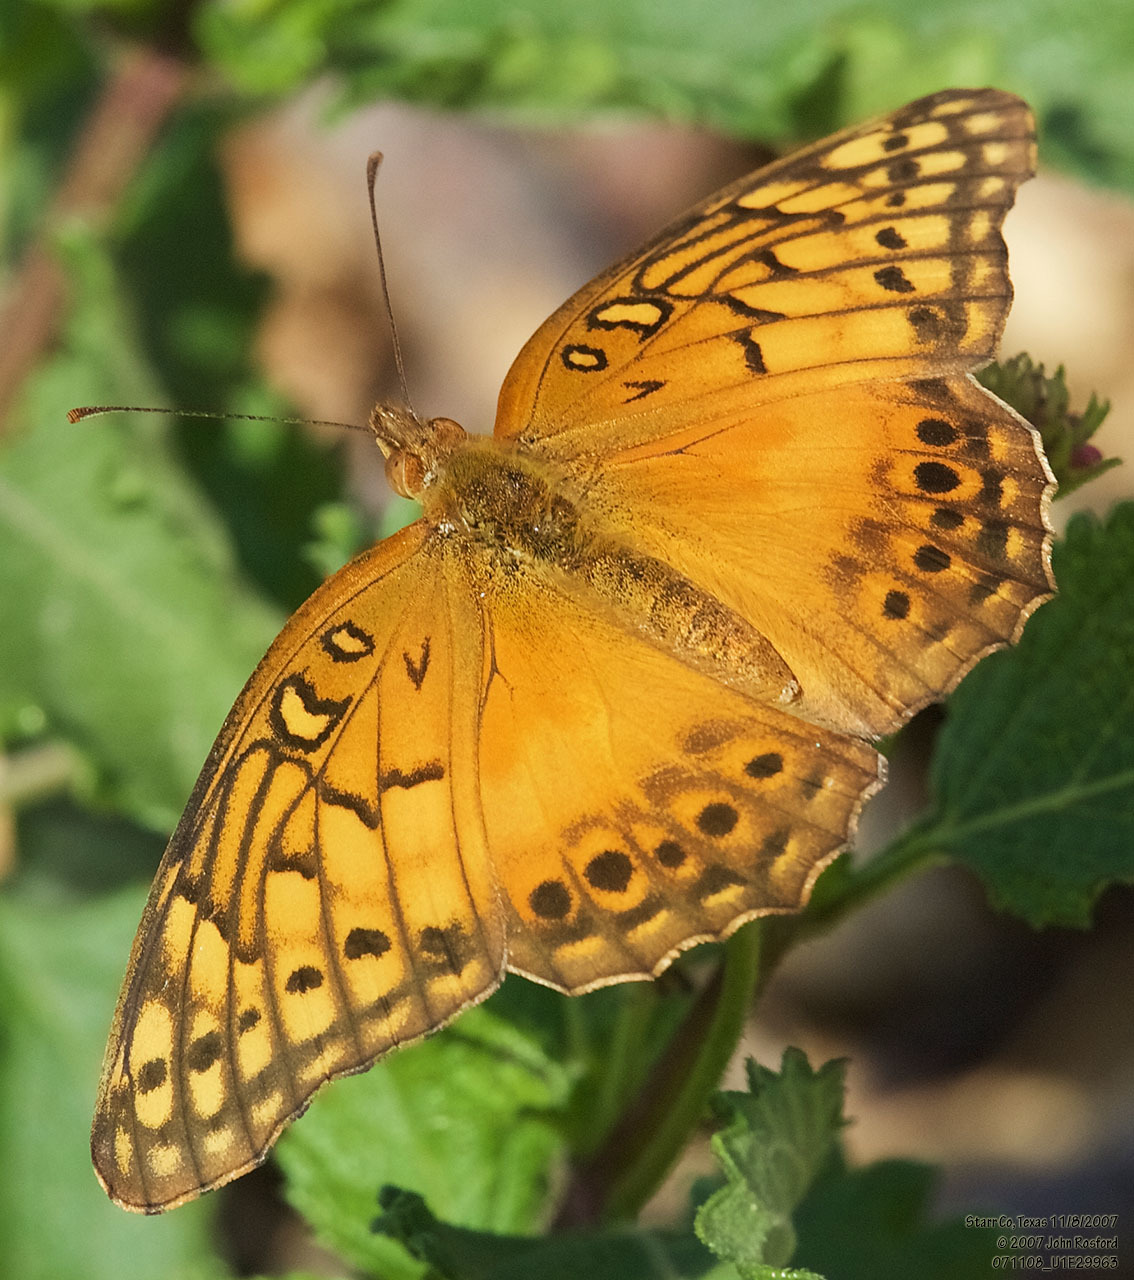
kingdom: Animalia
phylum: Arthropoda
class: Insecta
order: Lepidoptera
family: Nymphalidae
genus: Euptoieta
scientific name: Euptoieta hegesia
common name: Mexican fritillary
